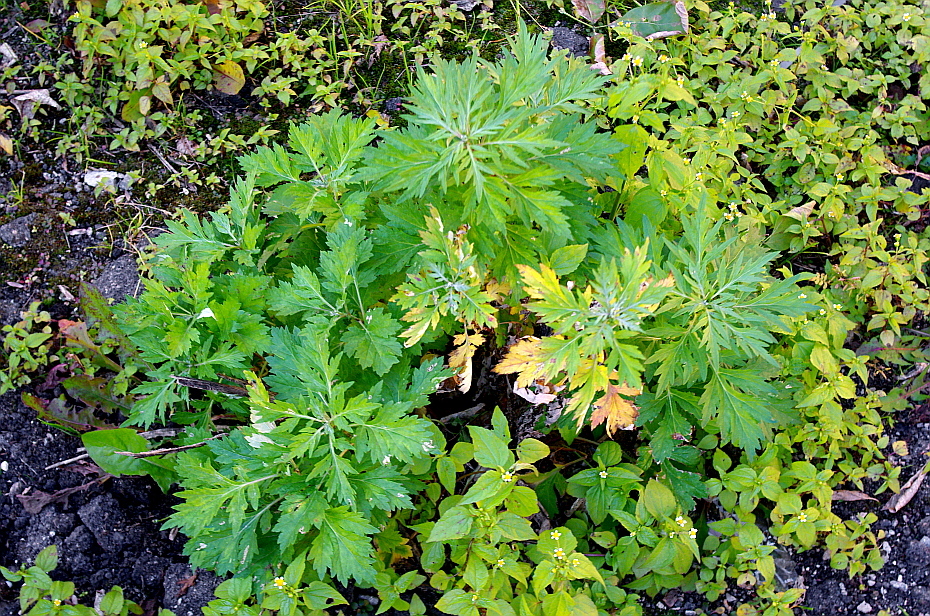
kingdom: Plantae
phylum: Tracheophyta
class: Magnoliopsida
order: Asterales
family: Asteraceae
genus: Artemisia
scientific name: Artemisia vulgaris
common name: Mugwort
